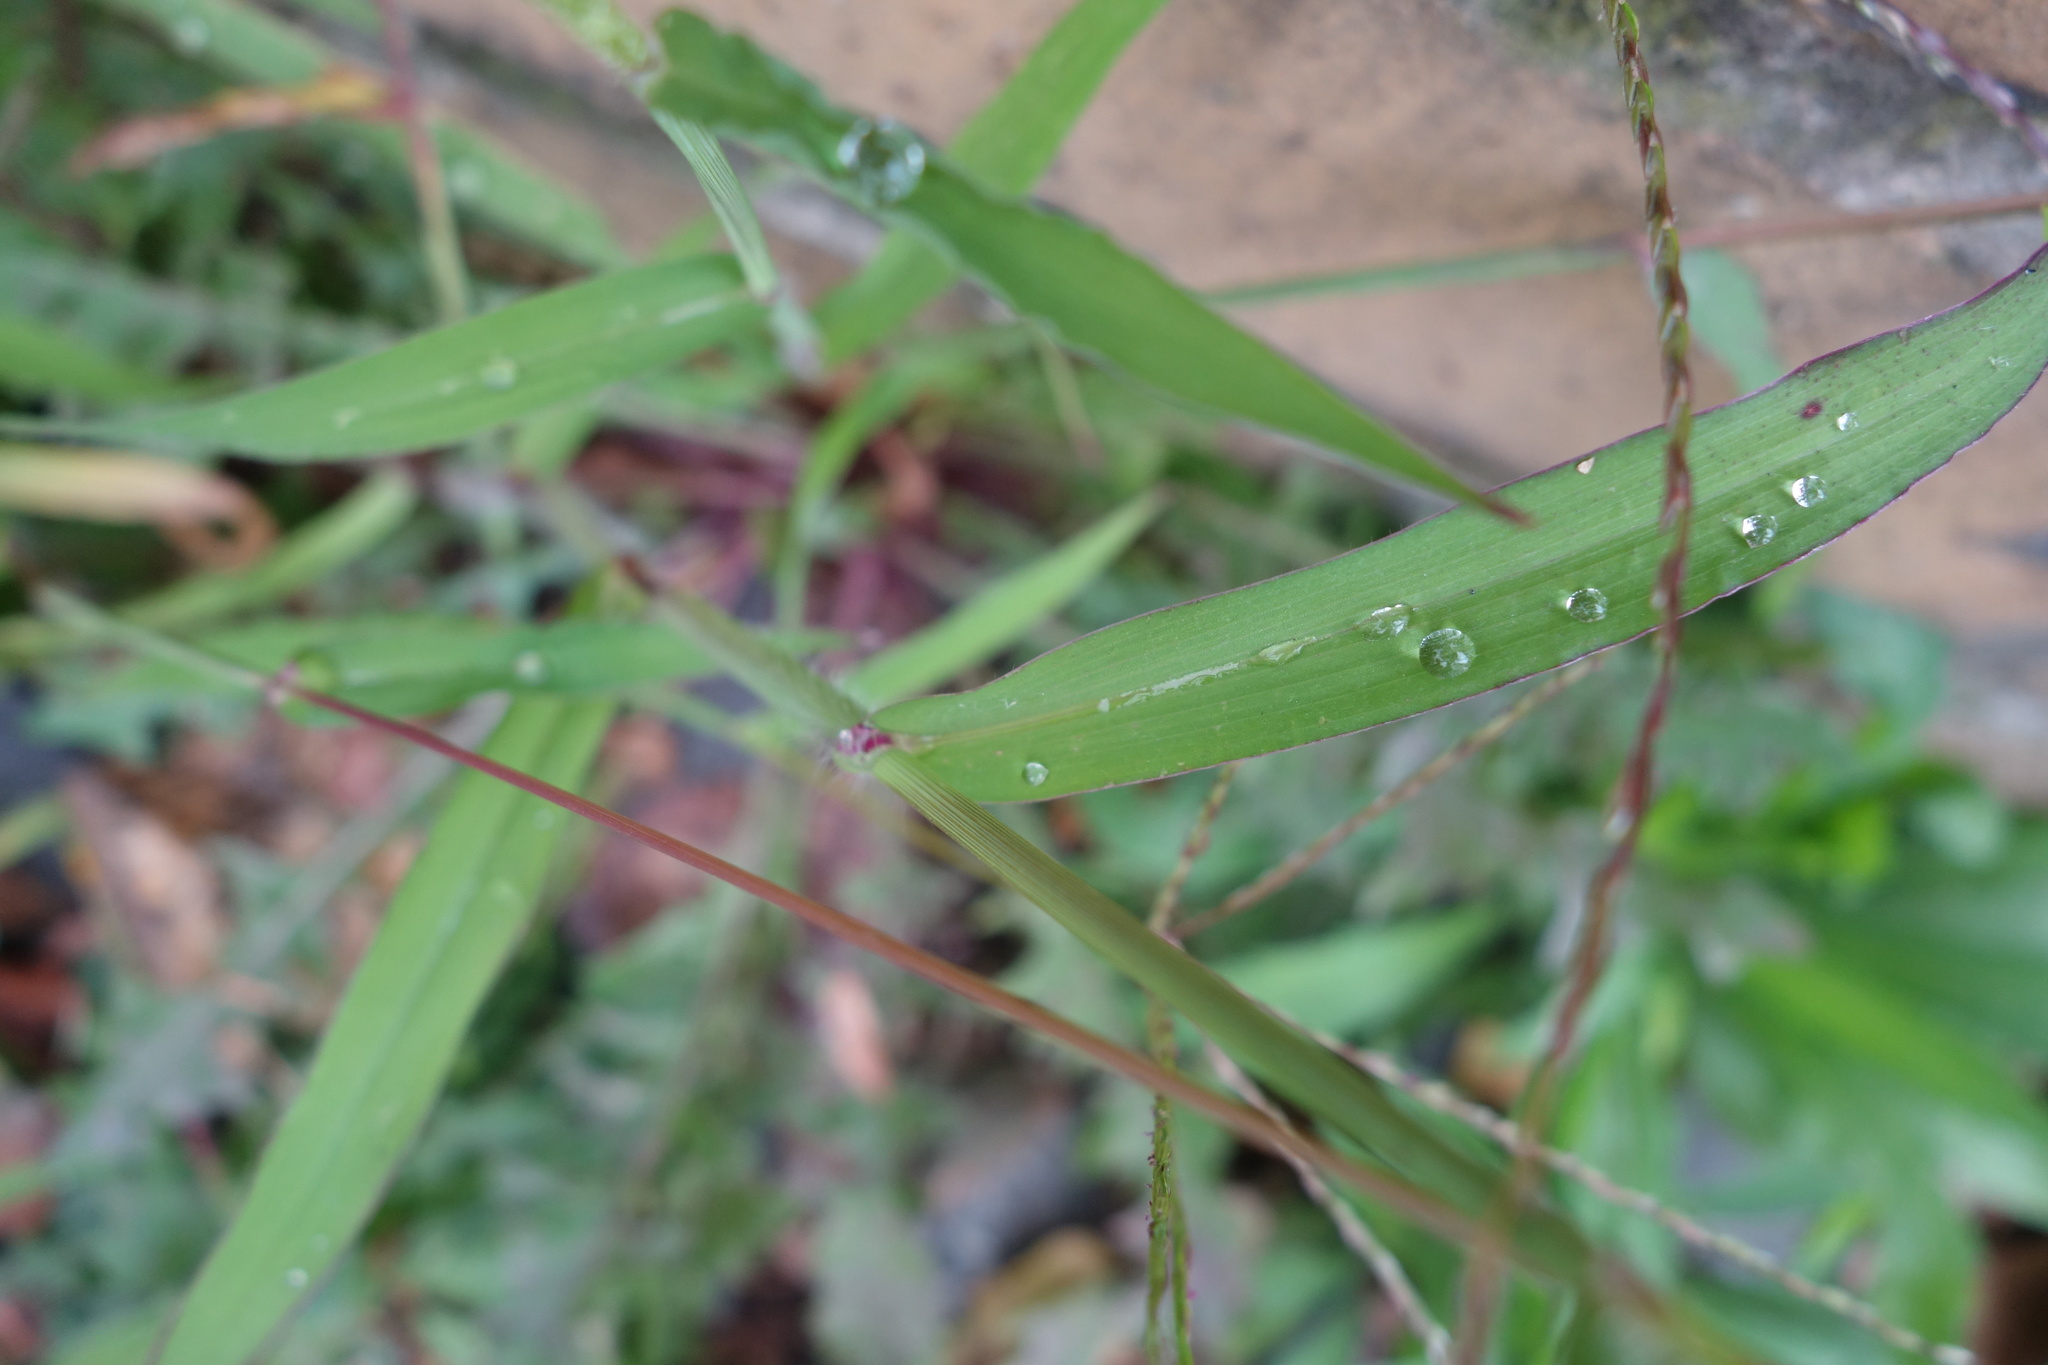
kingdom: Plantae
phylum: Tracheophyta
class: Liliopsida
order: Poales
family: Poaceae
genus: Digitaria
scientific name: Digitaria sanguinalis
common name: Hairy crabgrass
